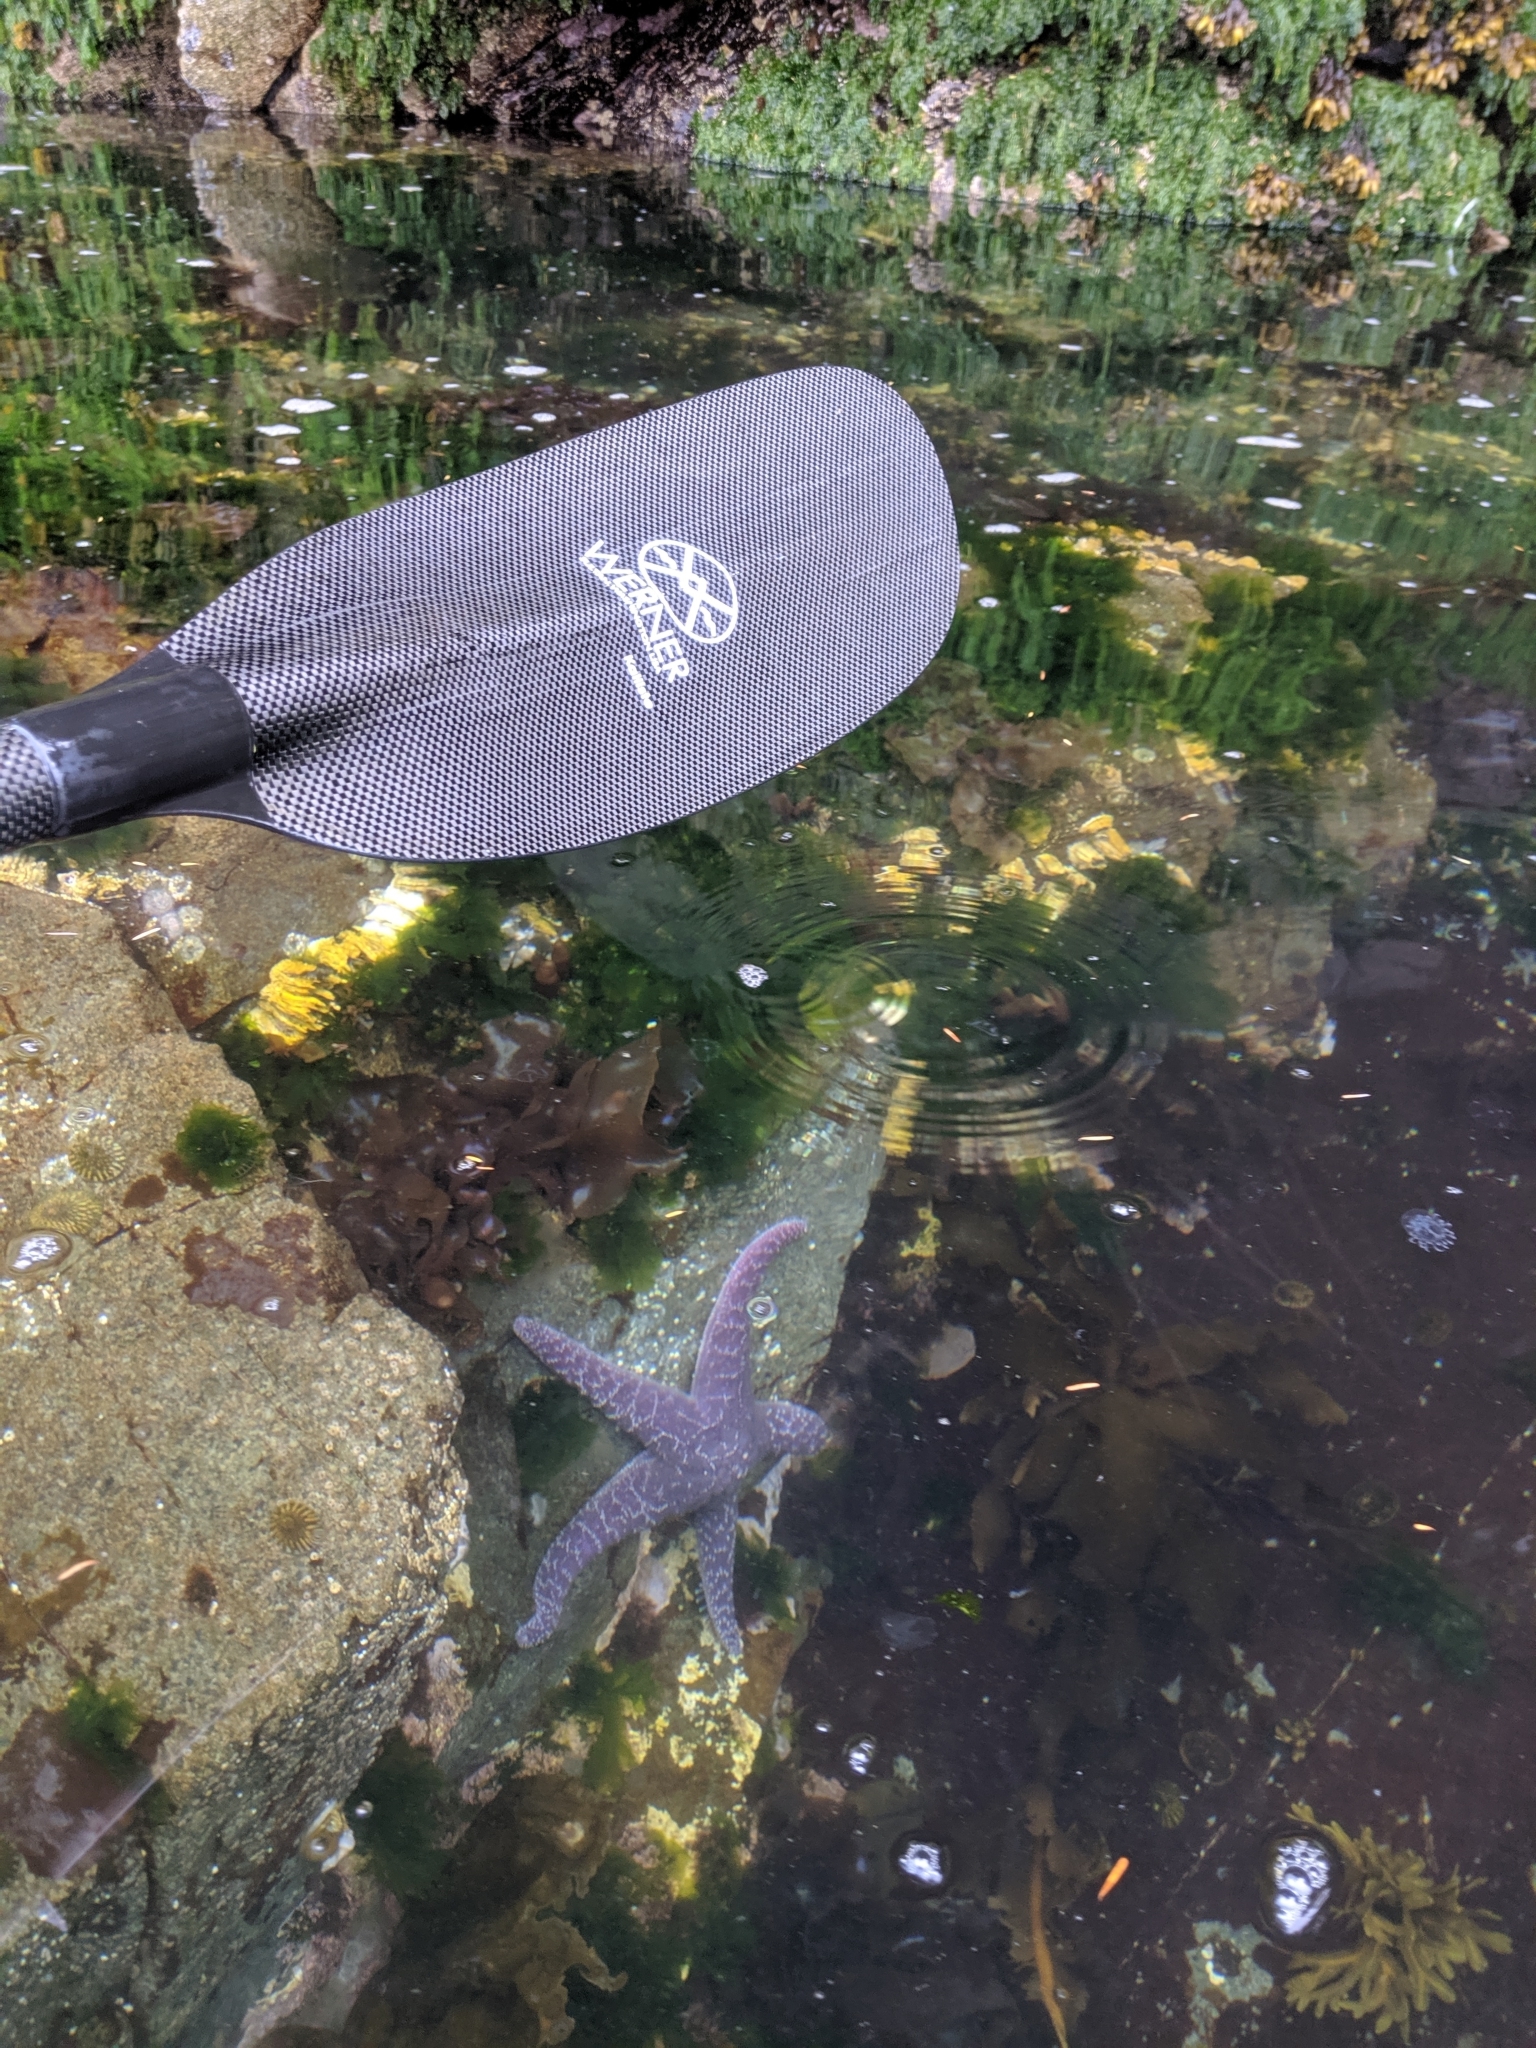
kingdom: Animalia
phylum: Echinodermata
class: Asteroidea
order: Forcipulatida
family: Asteriidae
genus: Pisaster
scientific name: Pisaster ochraceus
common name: Ochre stars
